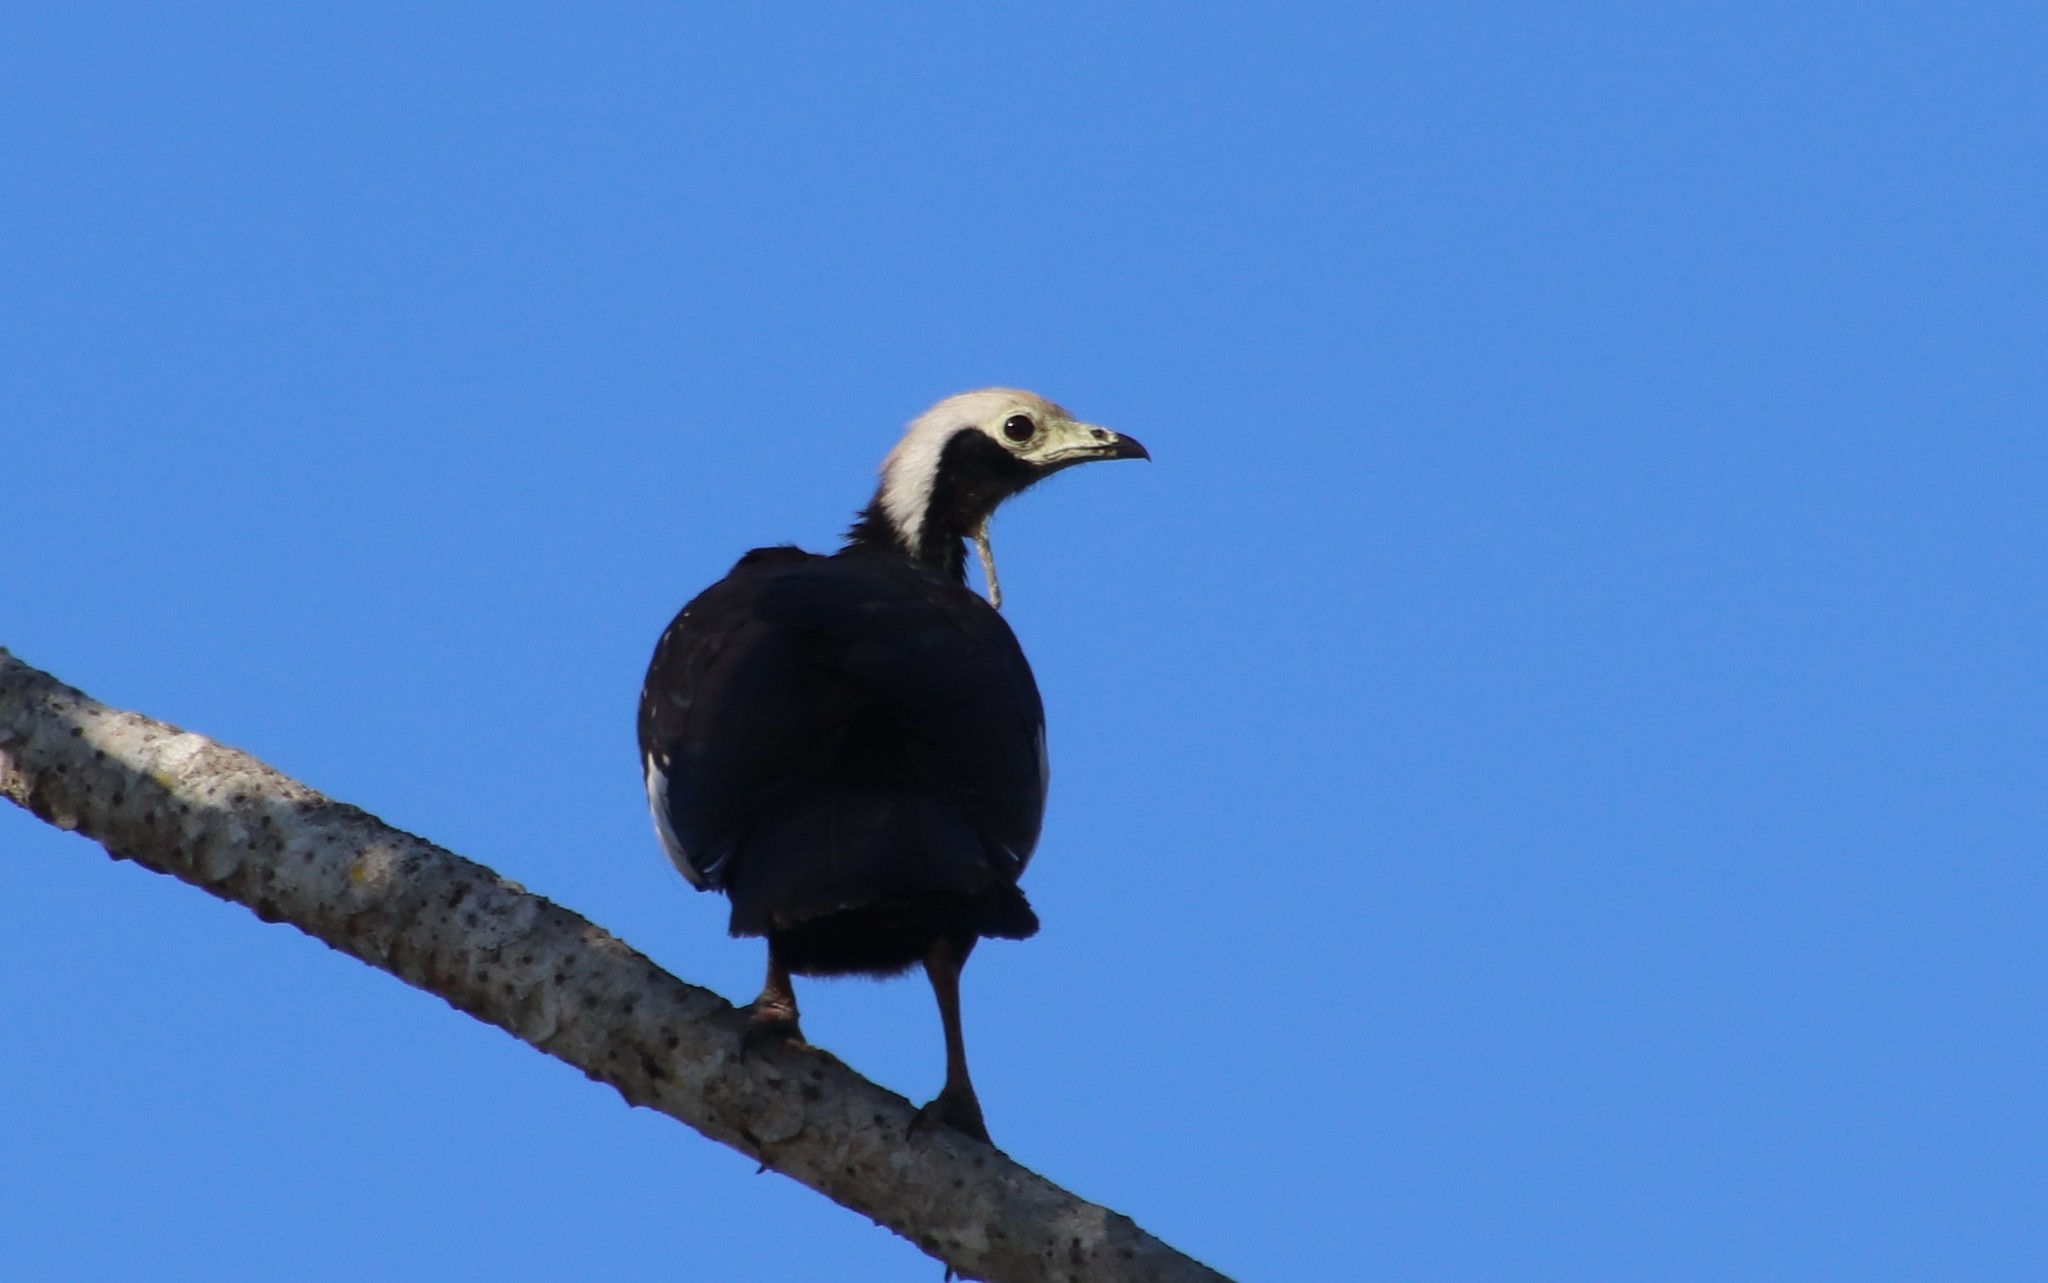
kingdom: Animalia
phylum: Chordata
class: Aves
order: Galliformes
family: Cracidae
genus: Pipile
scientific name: Pipile cumanensis
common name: Blue-throated piping-guan
